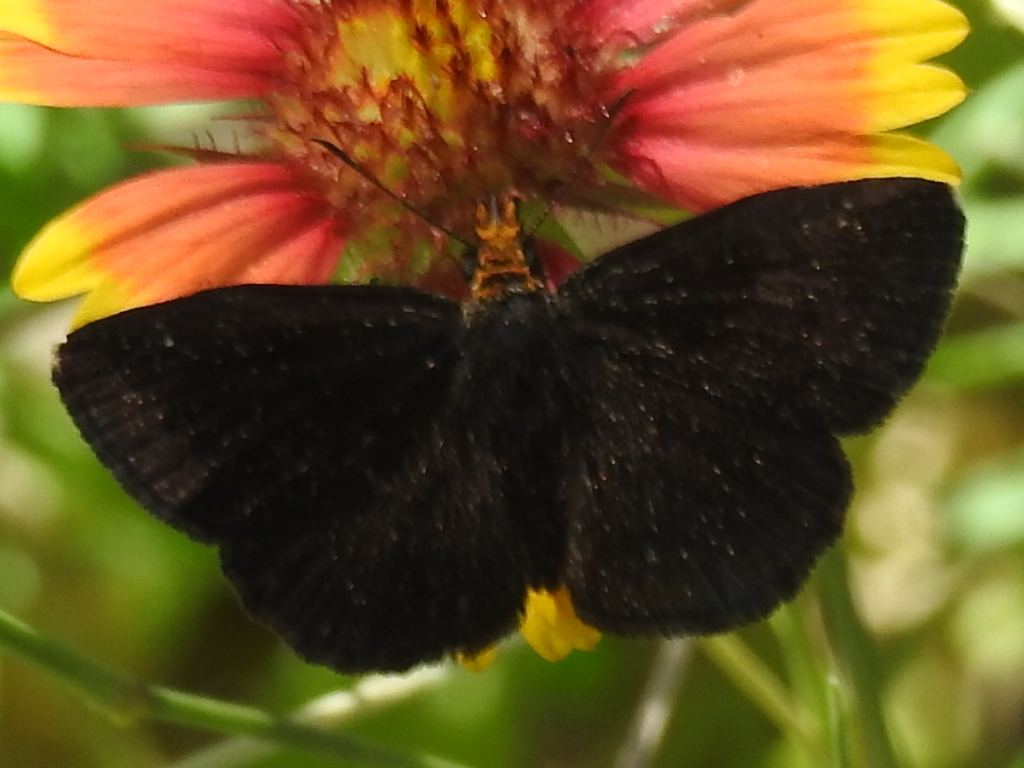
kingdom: Animalia
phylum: Arthropoda
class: Insecta
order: Lepidoptera
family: Hesperiidae
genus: Staphylus
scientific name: Staphylus ceos
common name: Golden-headed scallopwing
